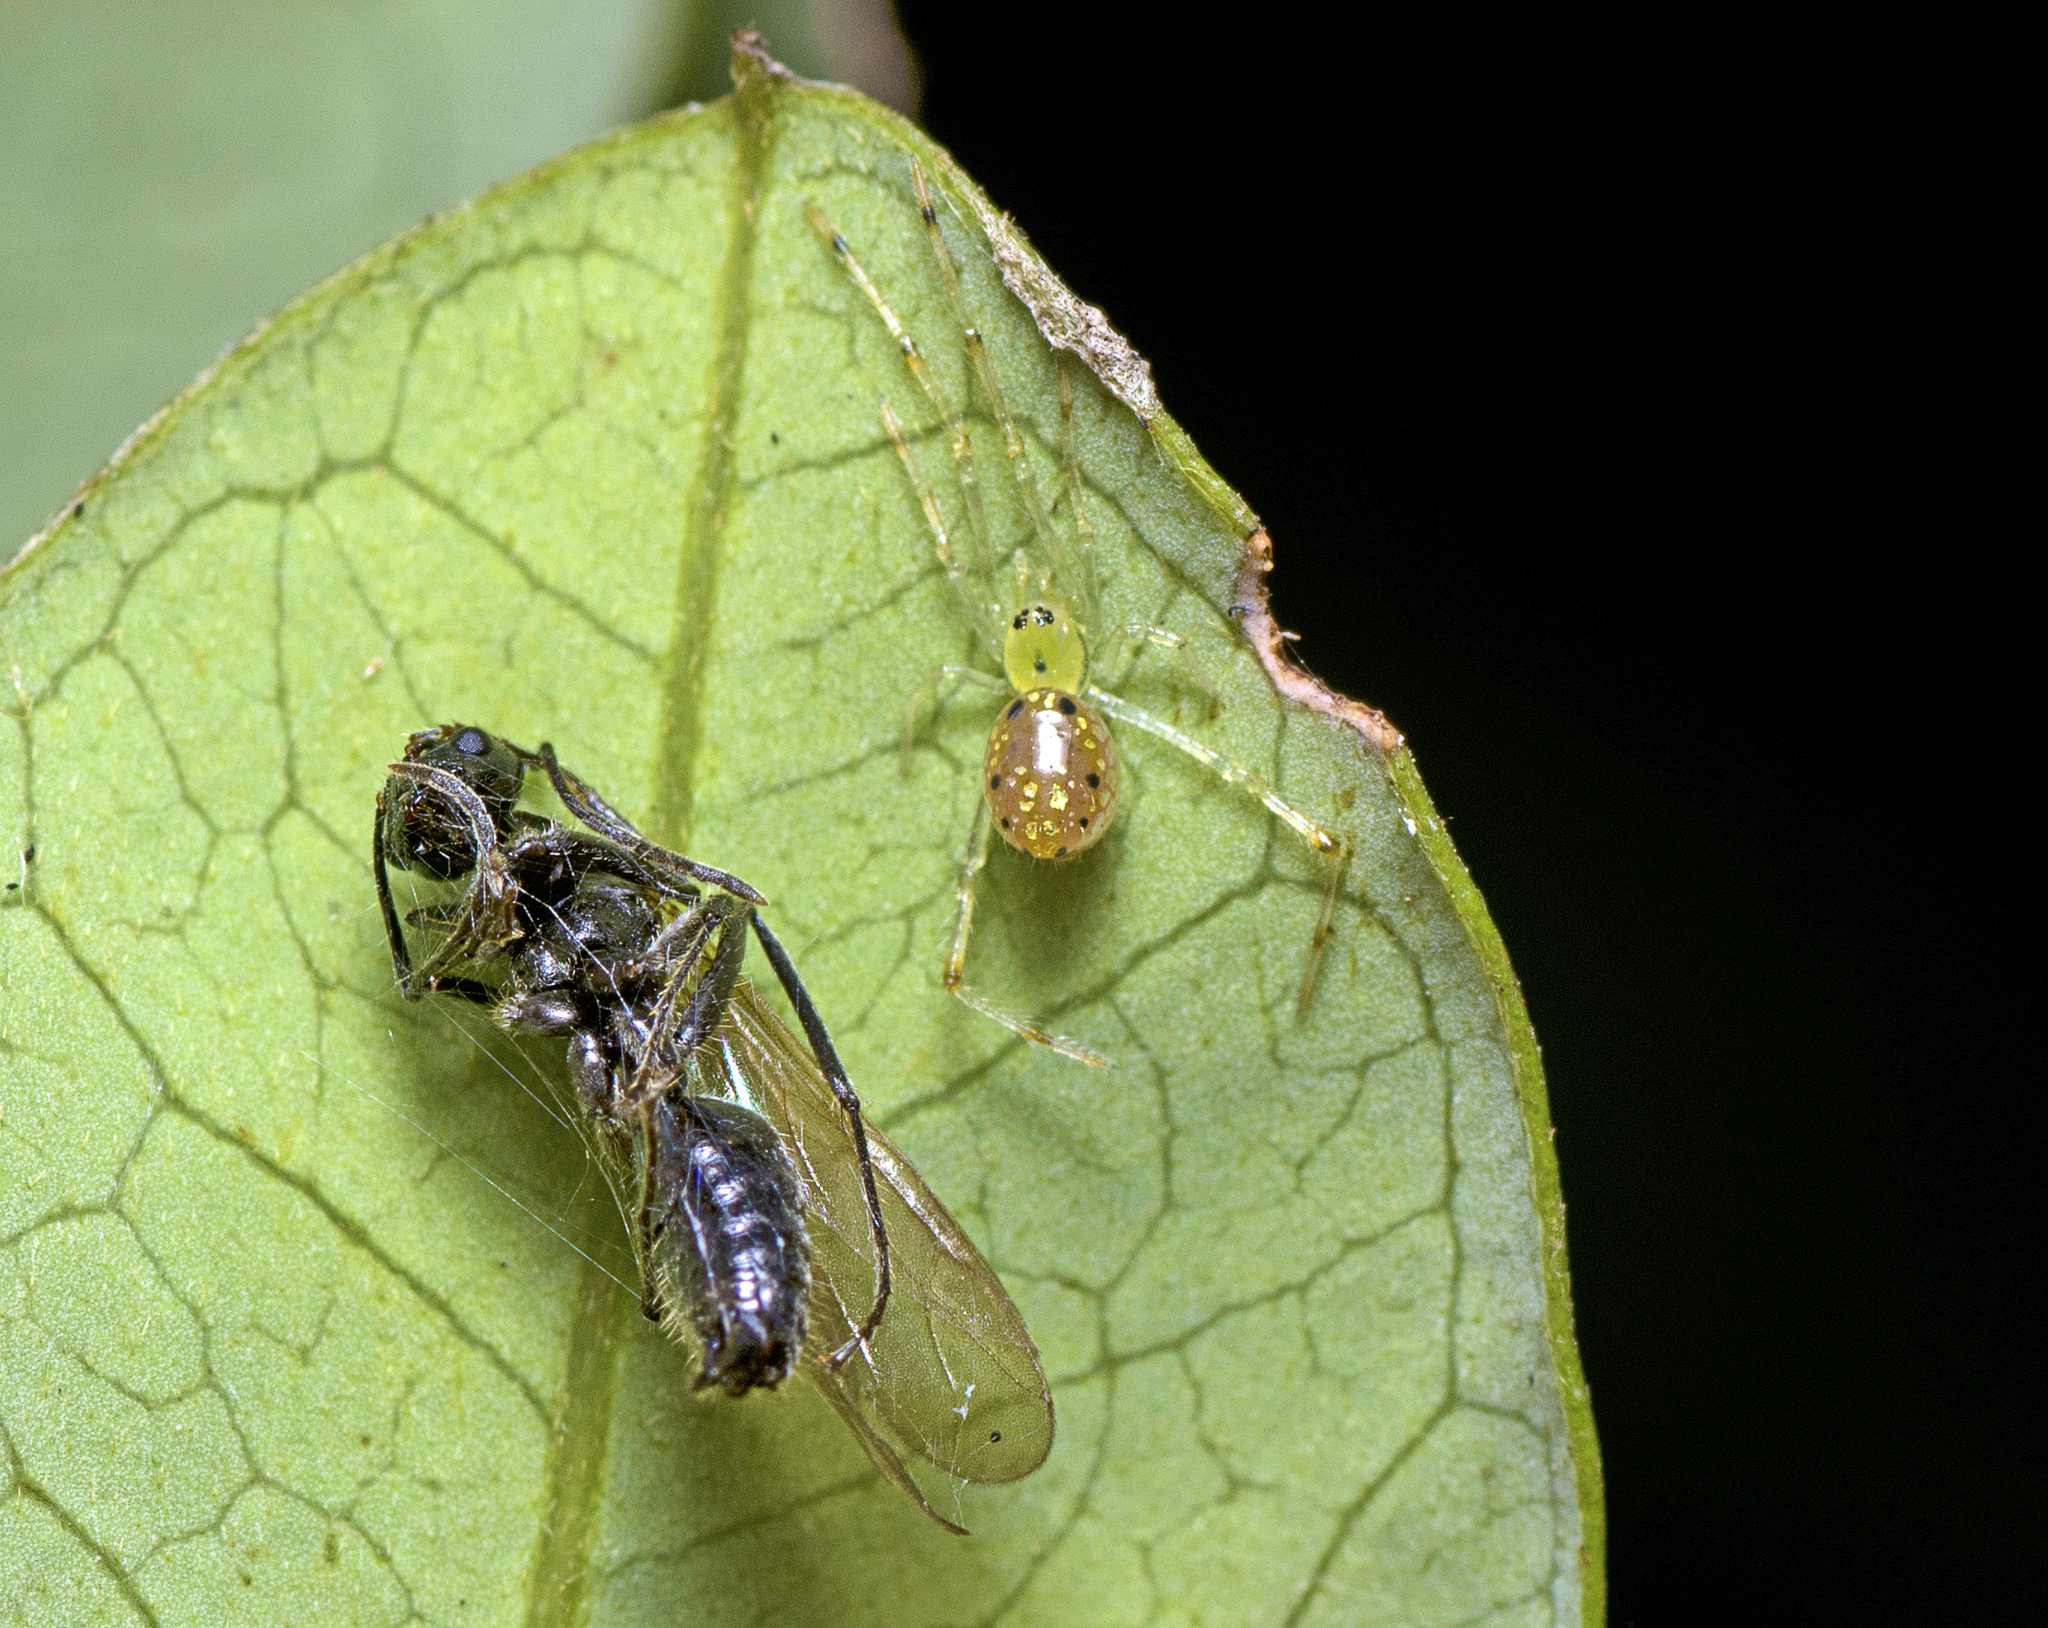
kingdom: Animalia
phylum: Arthropoda
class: Arachnida
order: Araneae
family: Theridiidae
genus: Thwaitesia
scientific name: Thwaitesia nigronodosa
